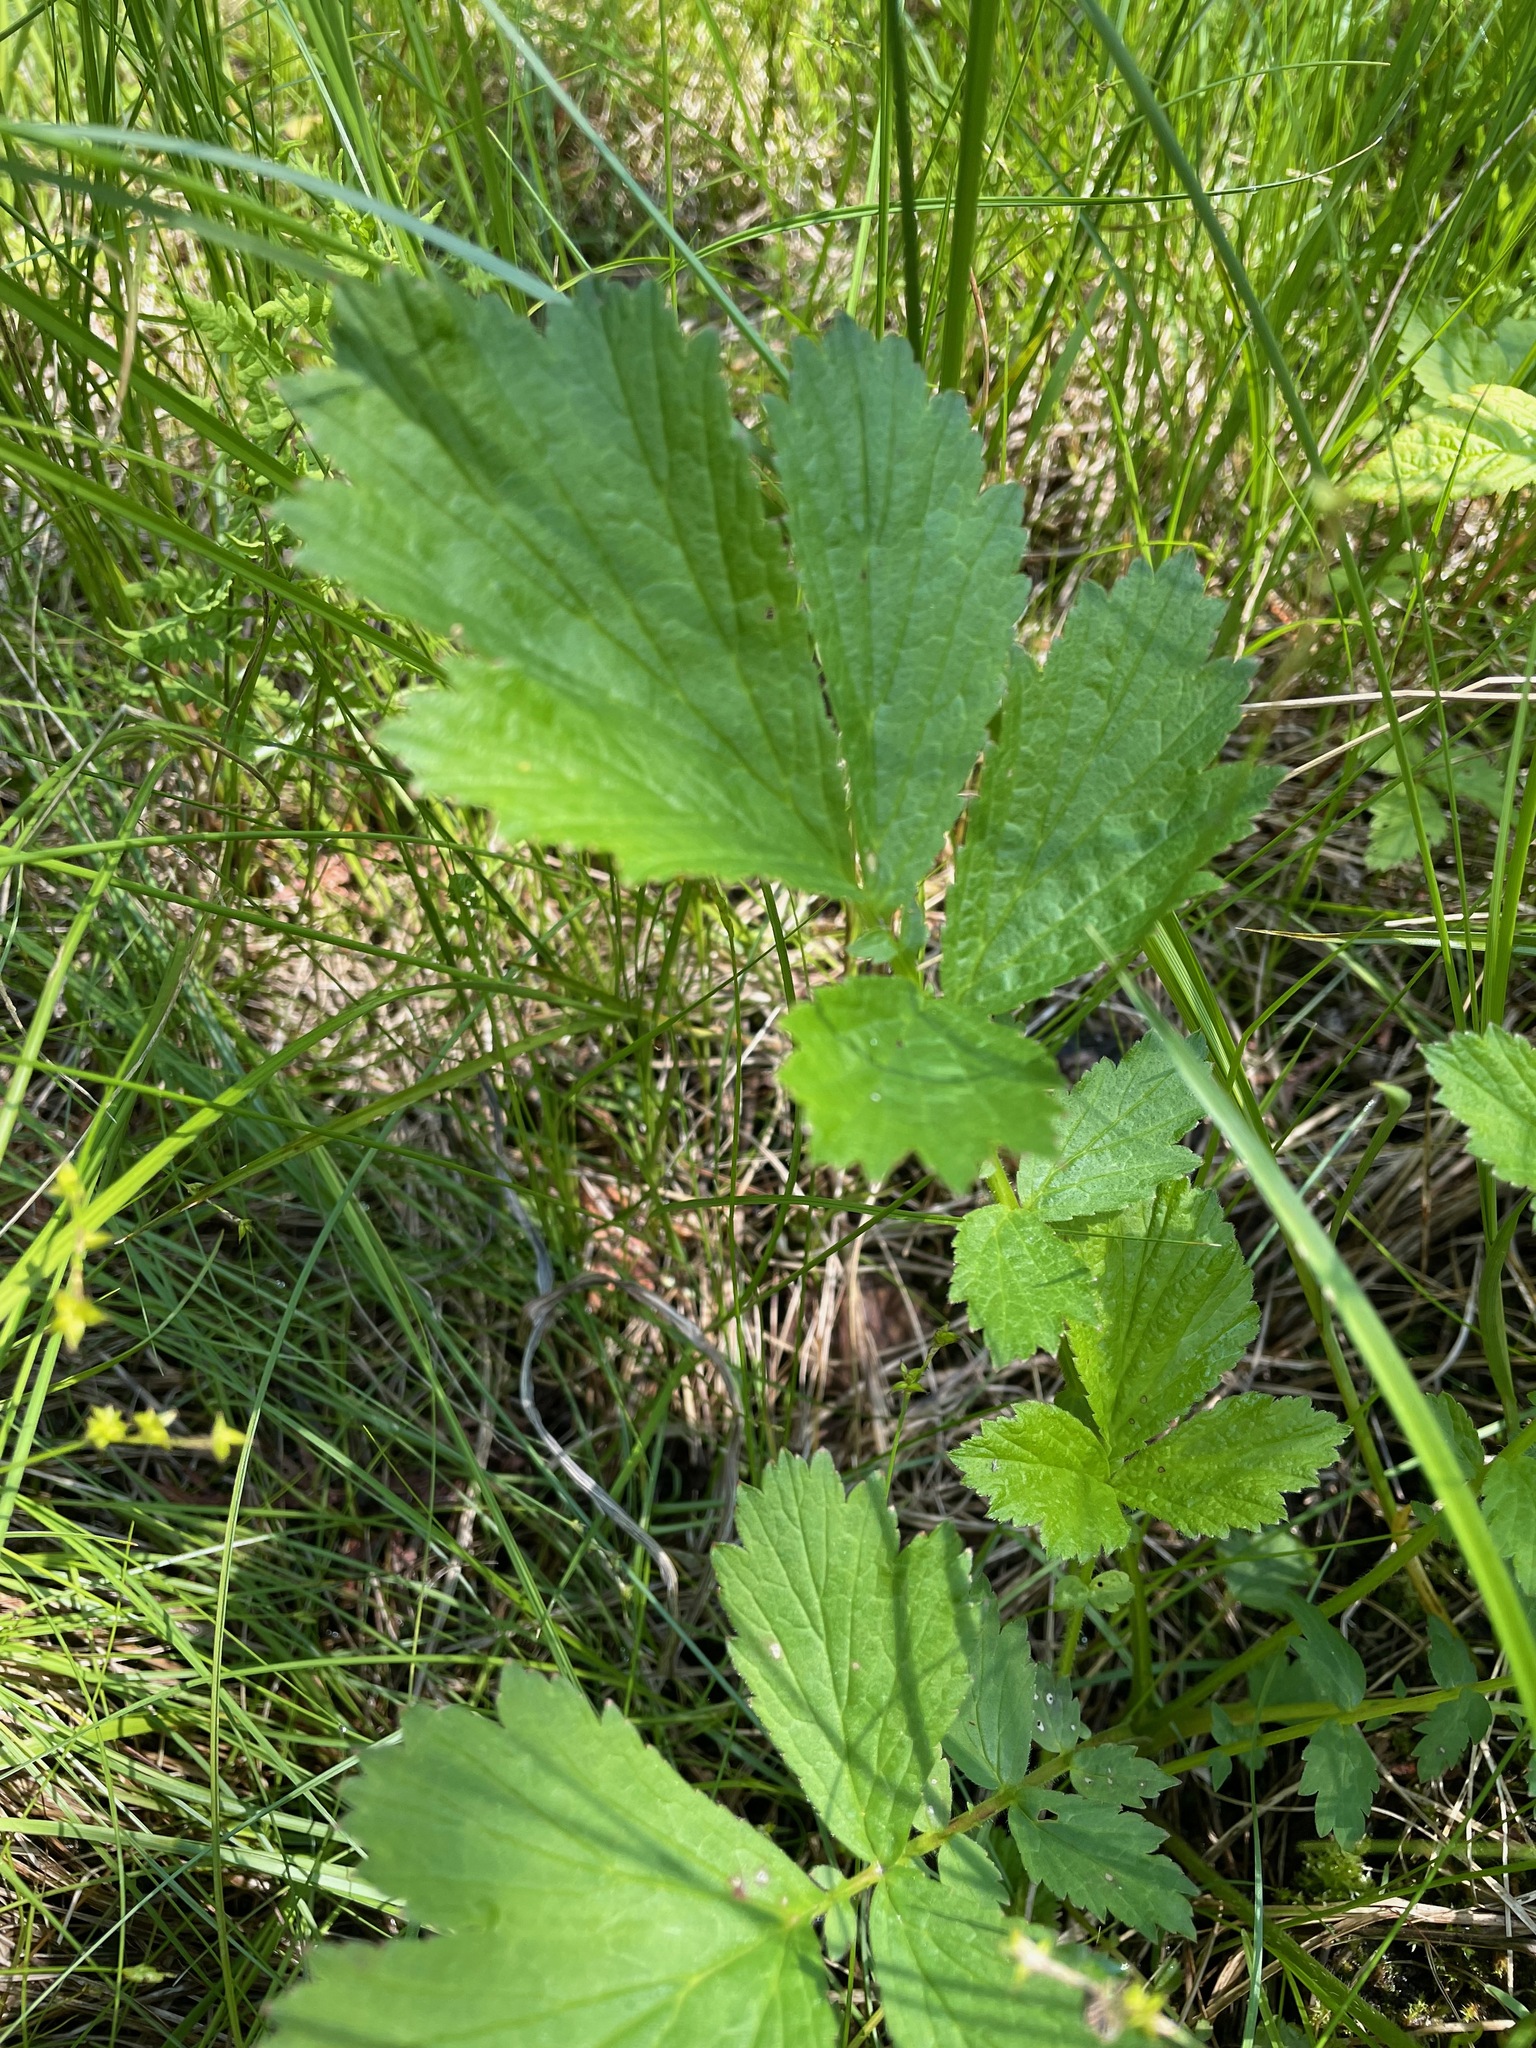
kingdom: Plantae
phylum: Tracheophyta
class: Magnoliopsida
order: Rosales
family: Rosaceae
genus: Geum
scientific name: Geum rivale
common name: Water avens
